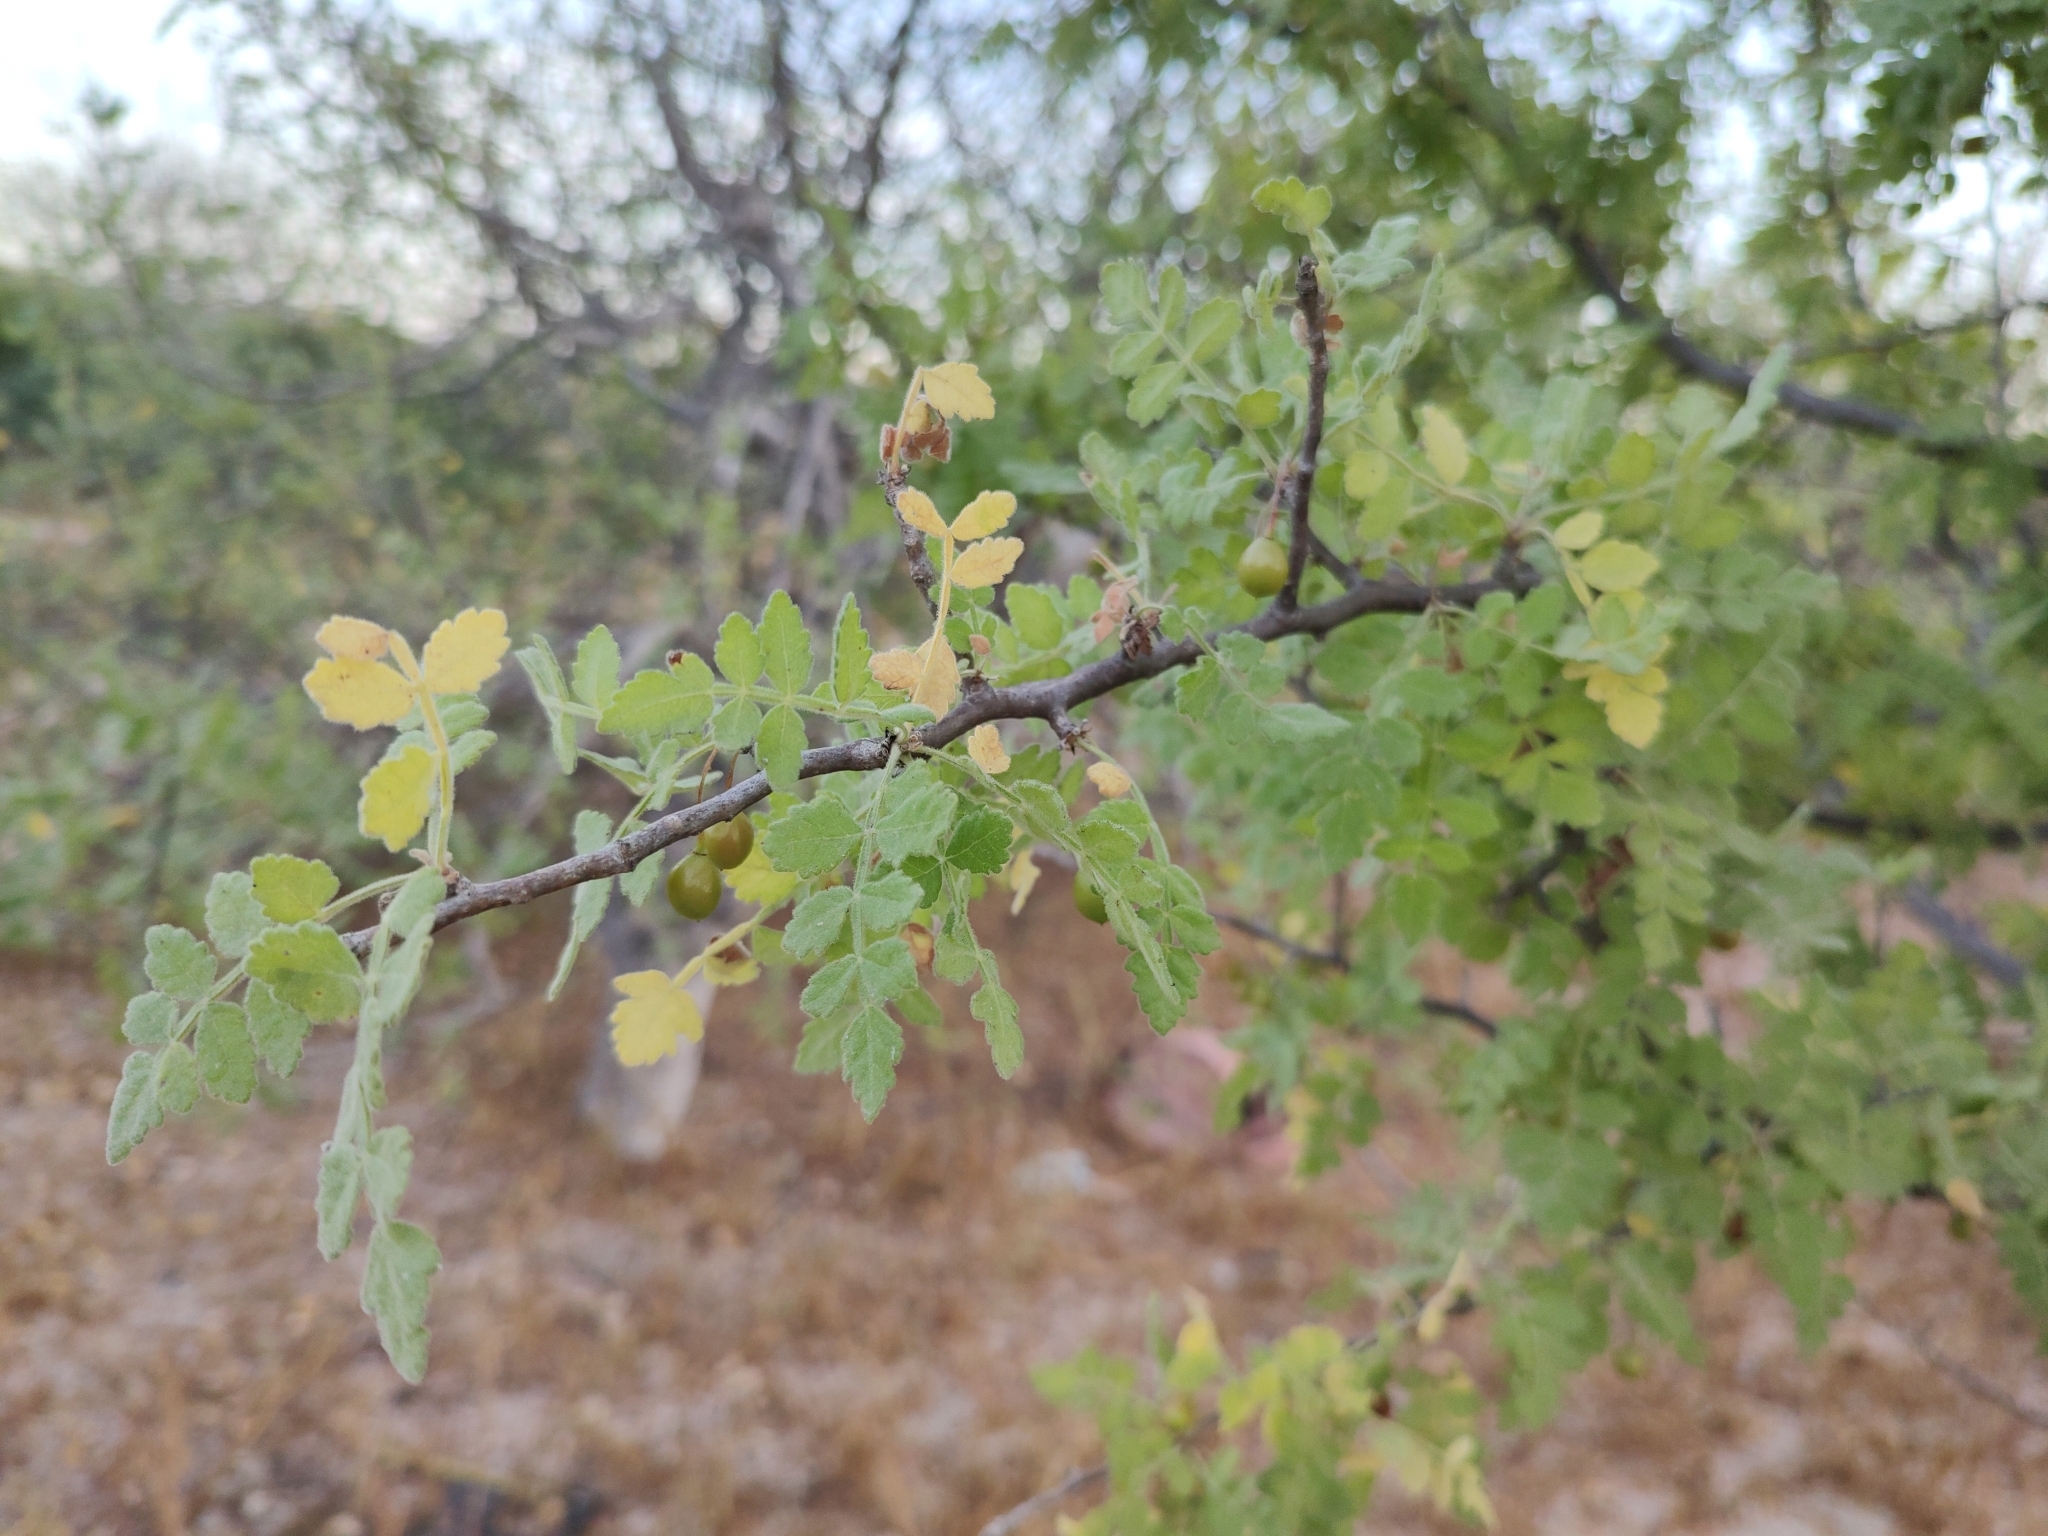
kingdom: Plantae
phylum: Tracheophyta
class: Magnoliopsida
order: Sapindales
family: Burseraceae
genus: Bursera
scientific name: Bursera filicifolia
